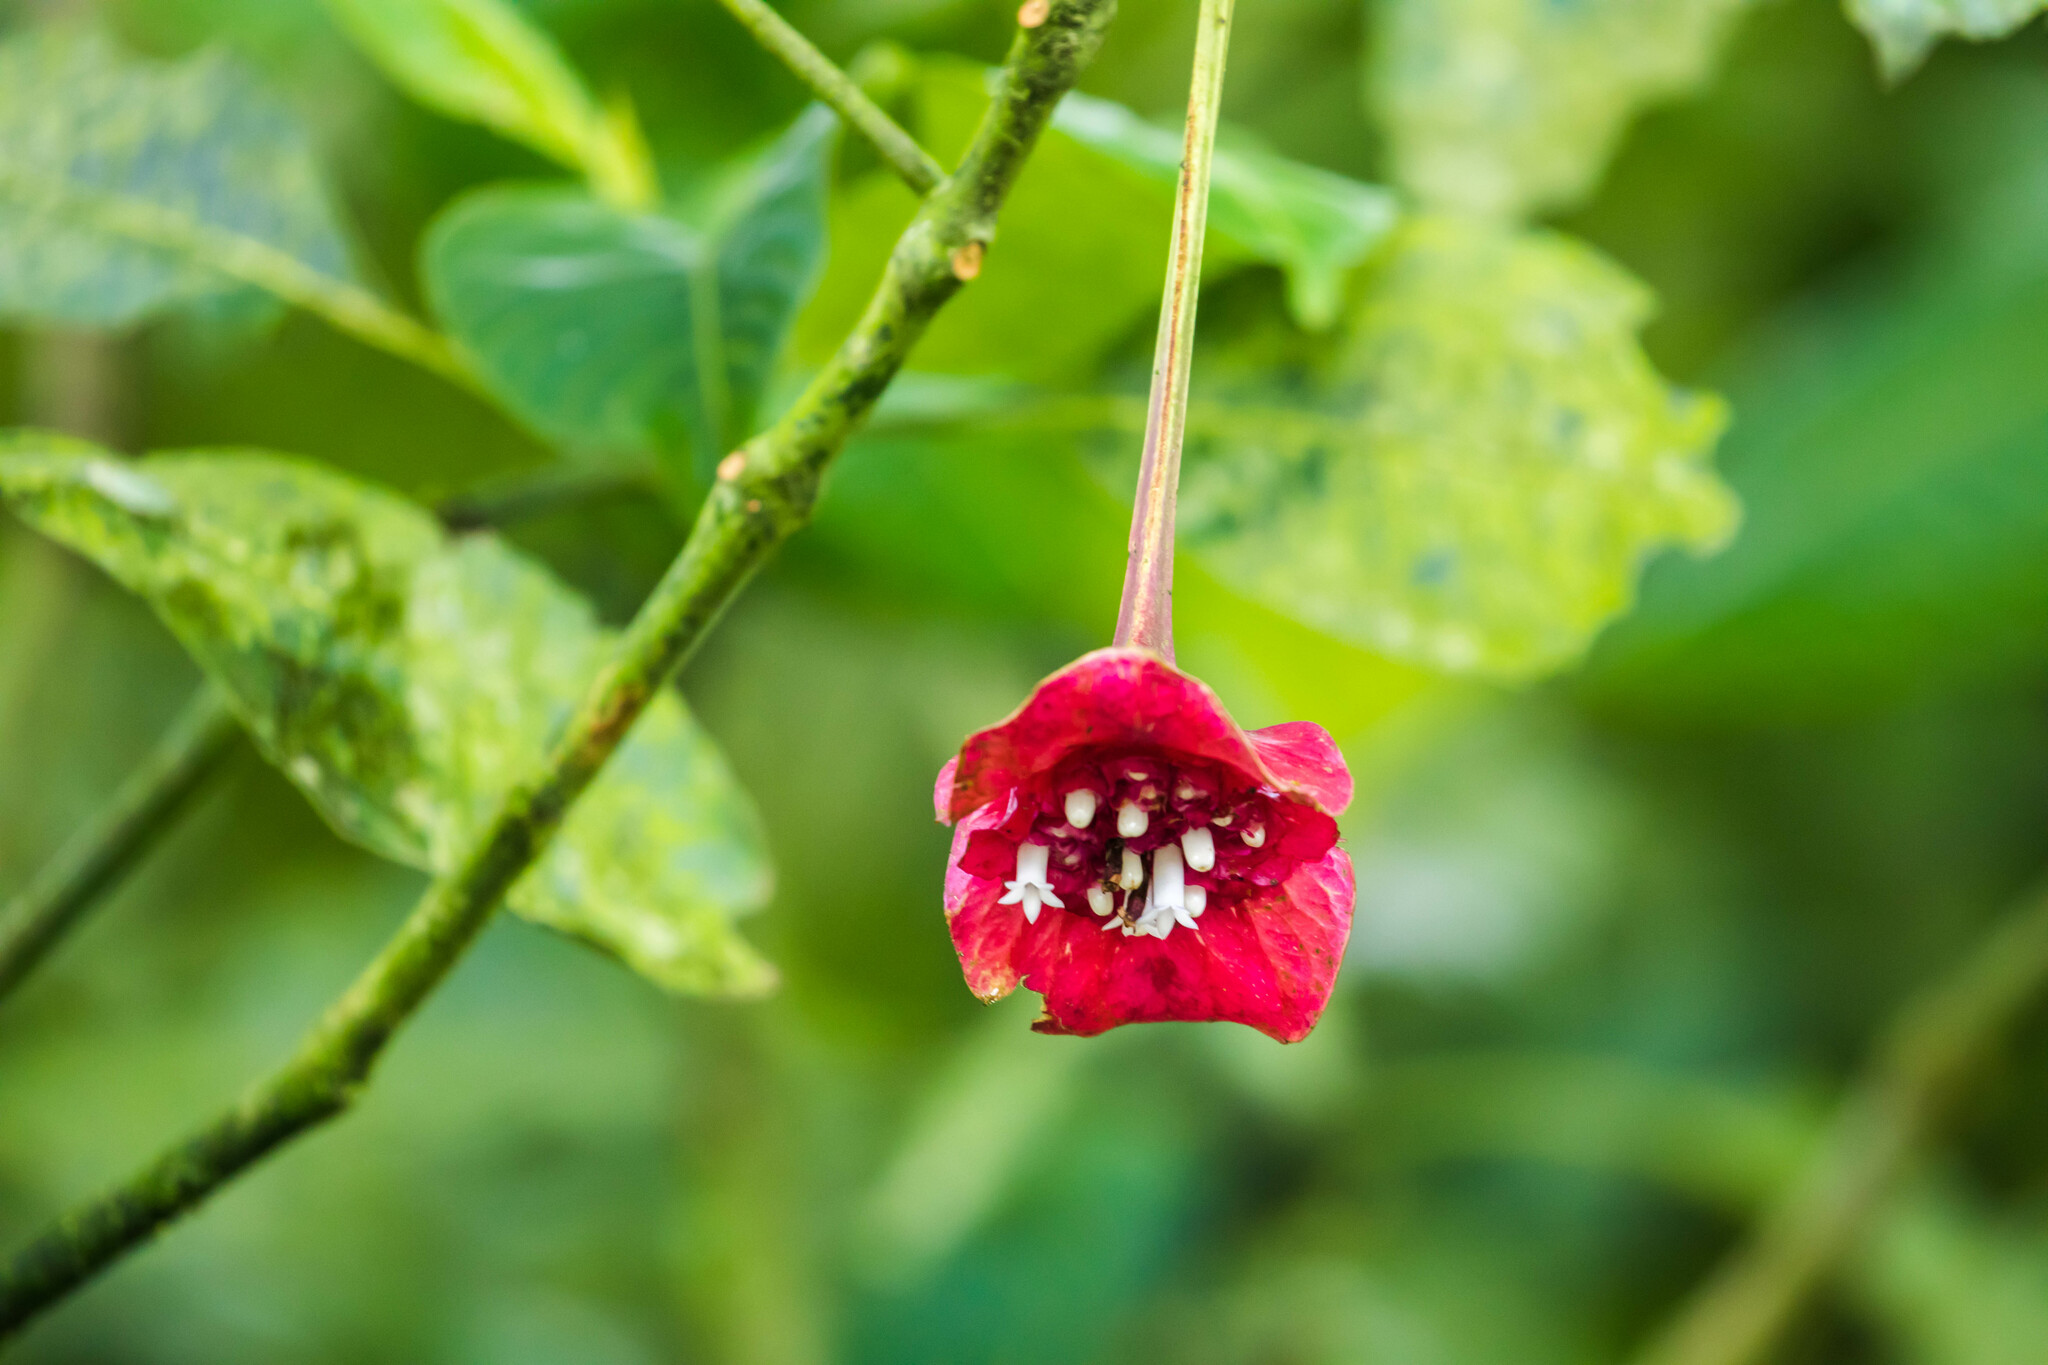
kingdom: Plantae
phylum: Tracheophyta
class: Magnoliopsida
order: Gentianales
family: Rubiaceae
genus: Palicourea
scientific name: Palicourea correae
